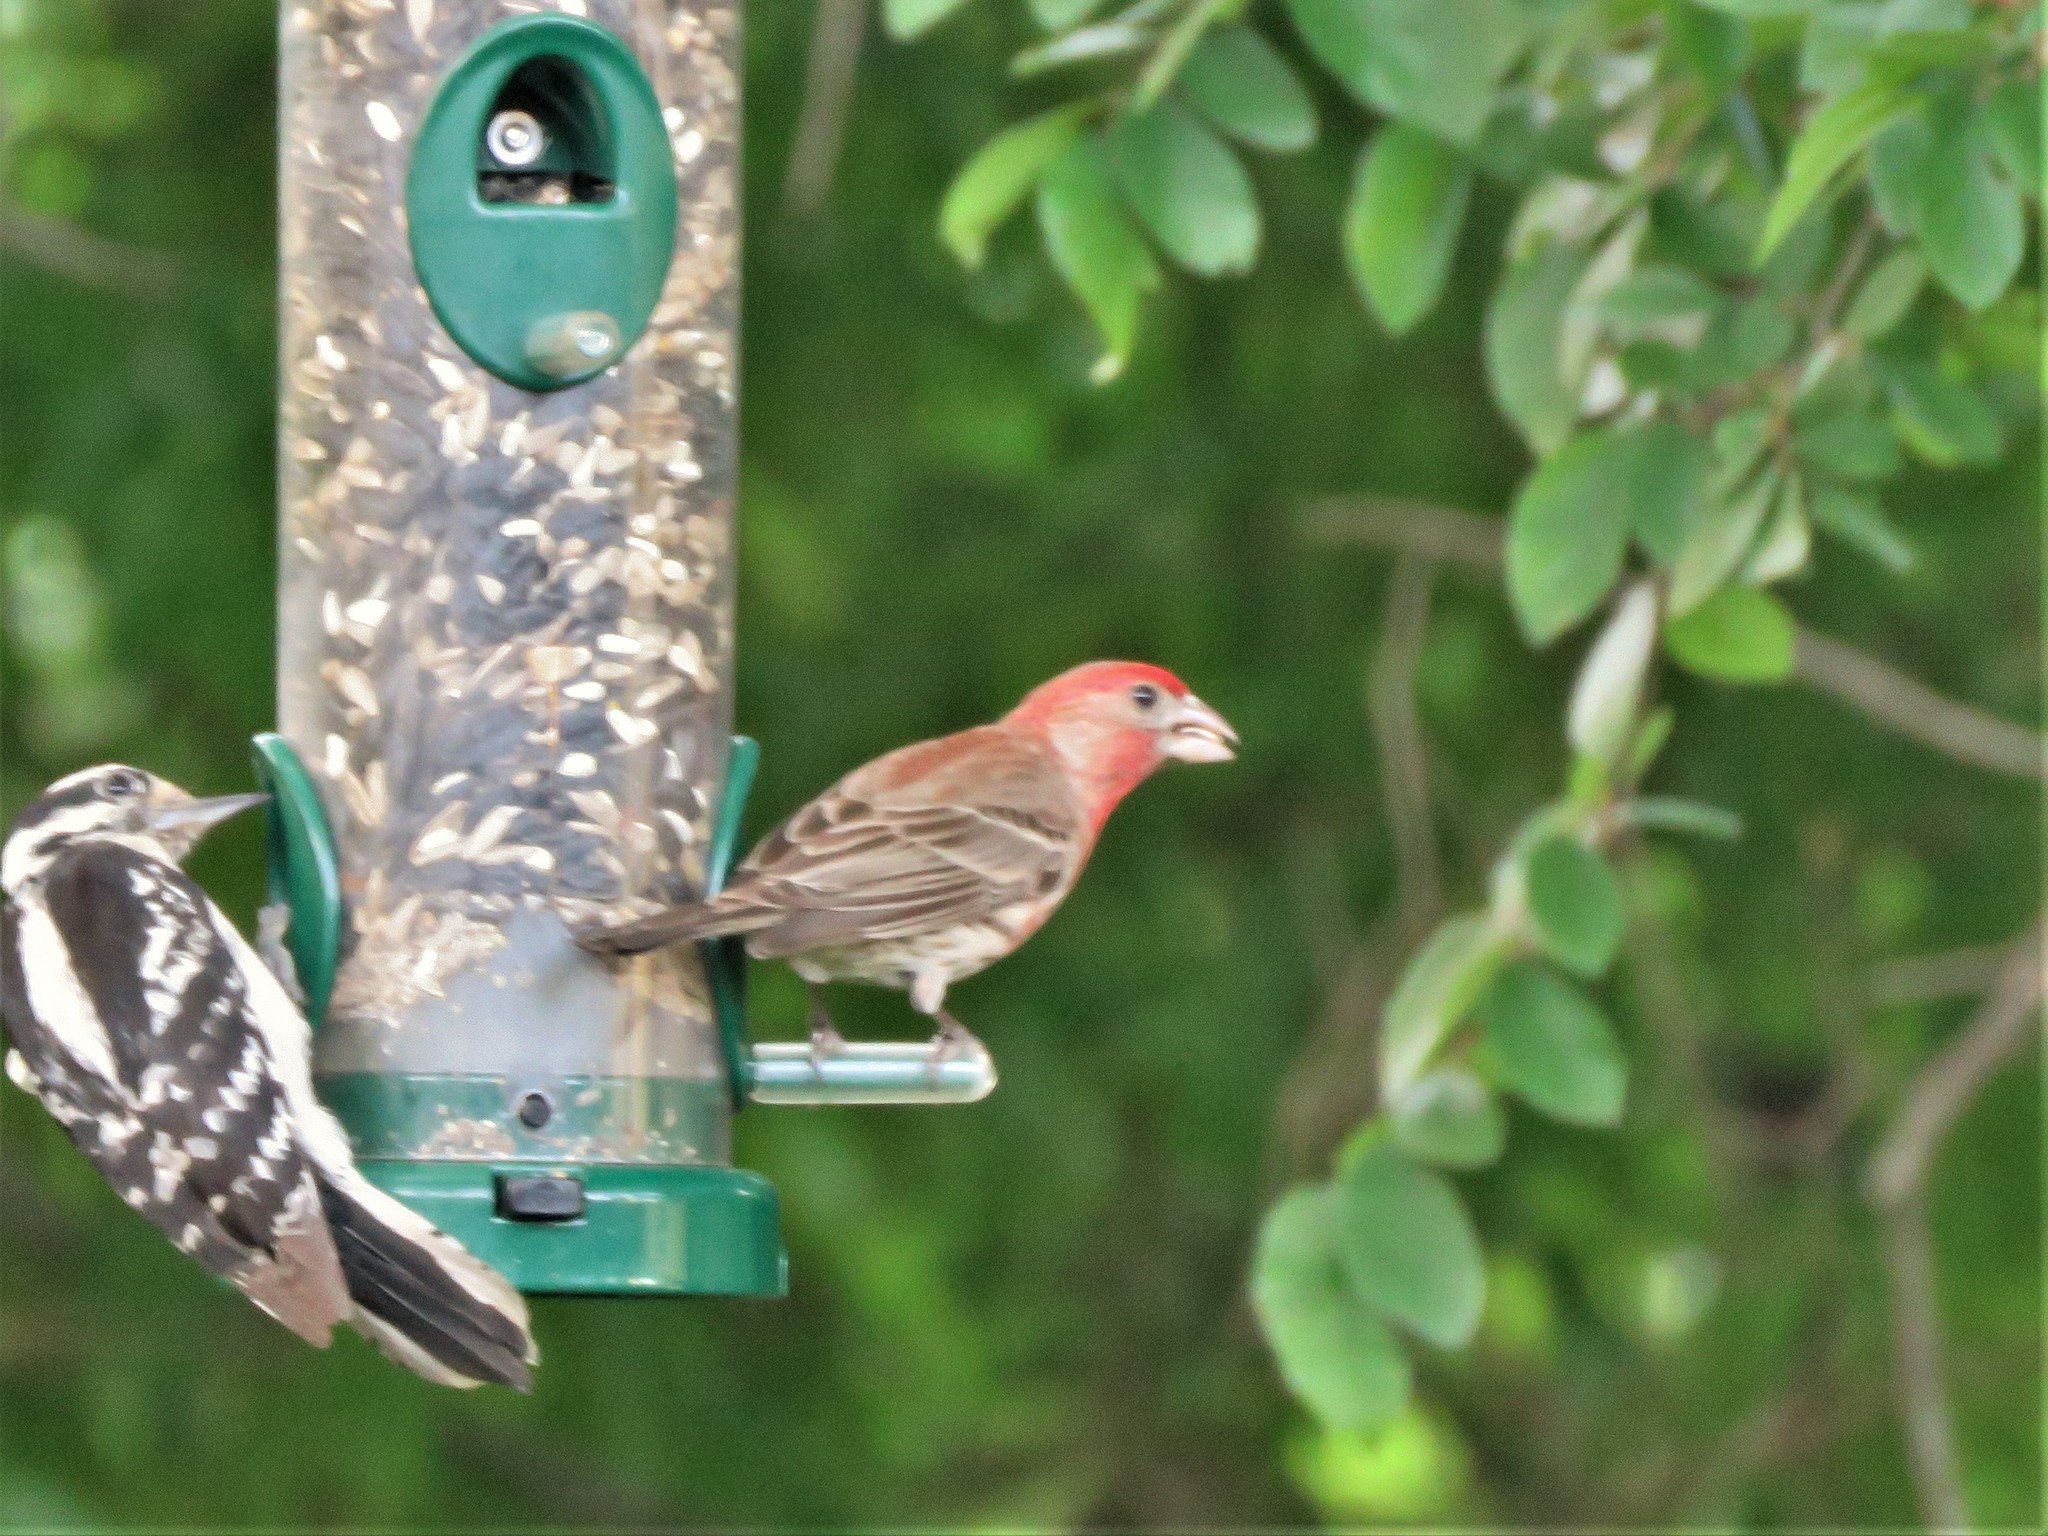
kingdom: Animalia
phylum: Chordata
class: Aves
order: Passeriformes
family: Fringillidae
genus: Haemorhous
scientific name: Haemorhous mexicanus
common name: House finch
